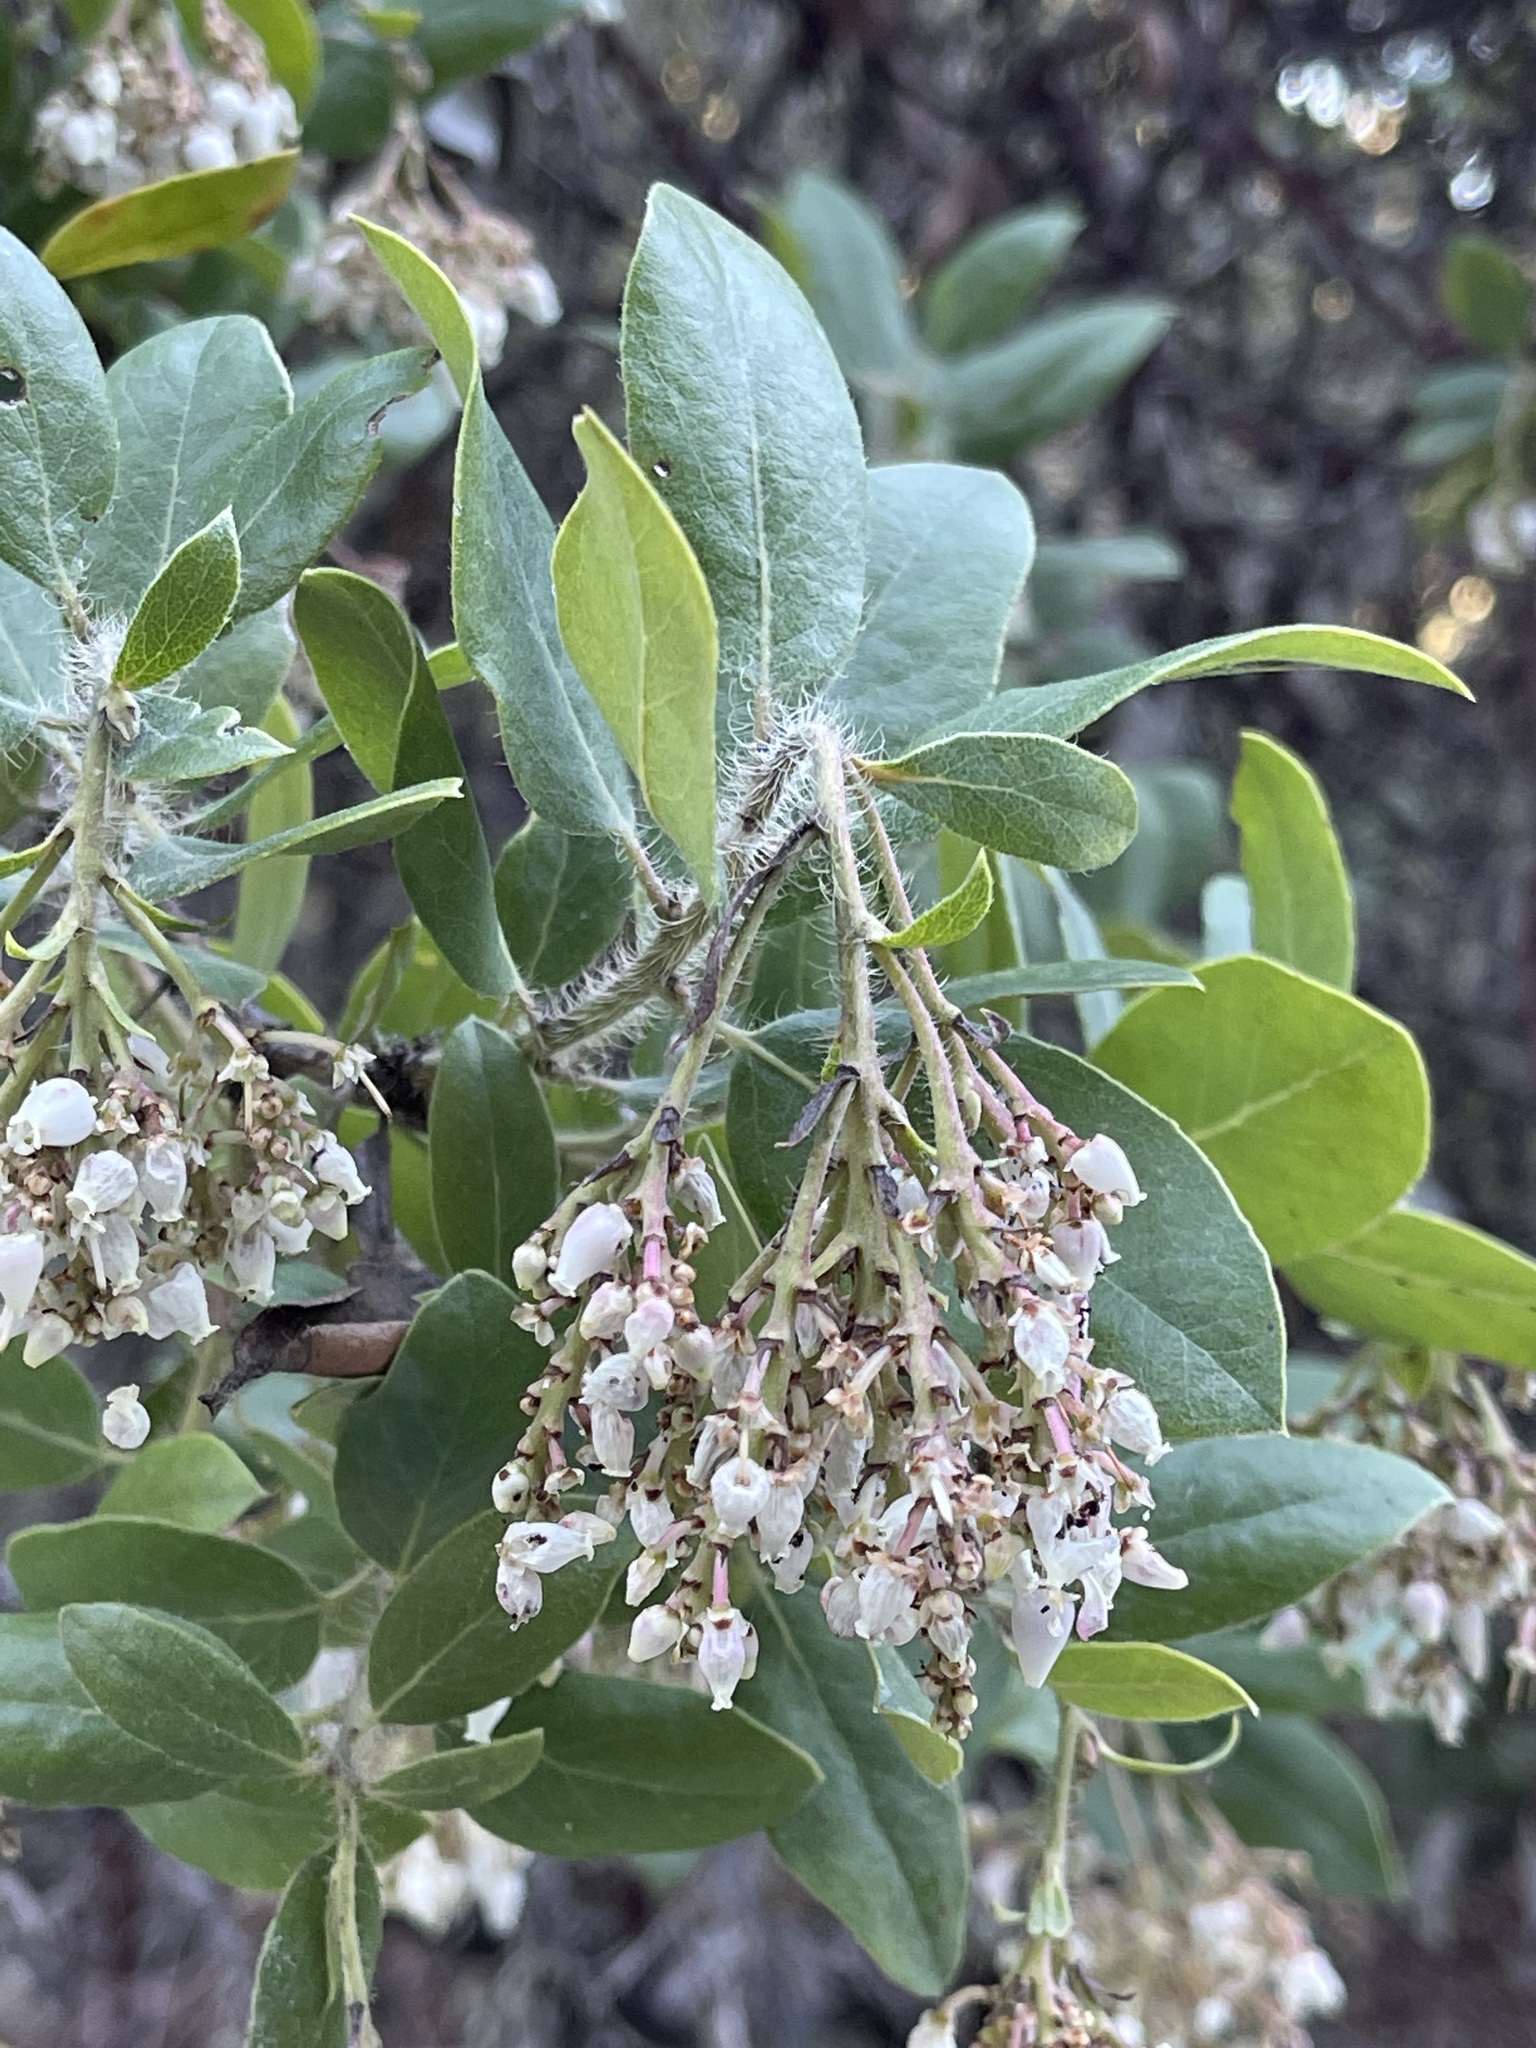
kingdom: Plantae
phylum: Tracheophyta
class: Magnoliopsida
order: Ericales
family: Ericaceae
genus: Arctostaphylos
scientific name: Arctostaphylos crustacea
